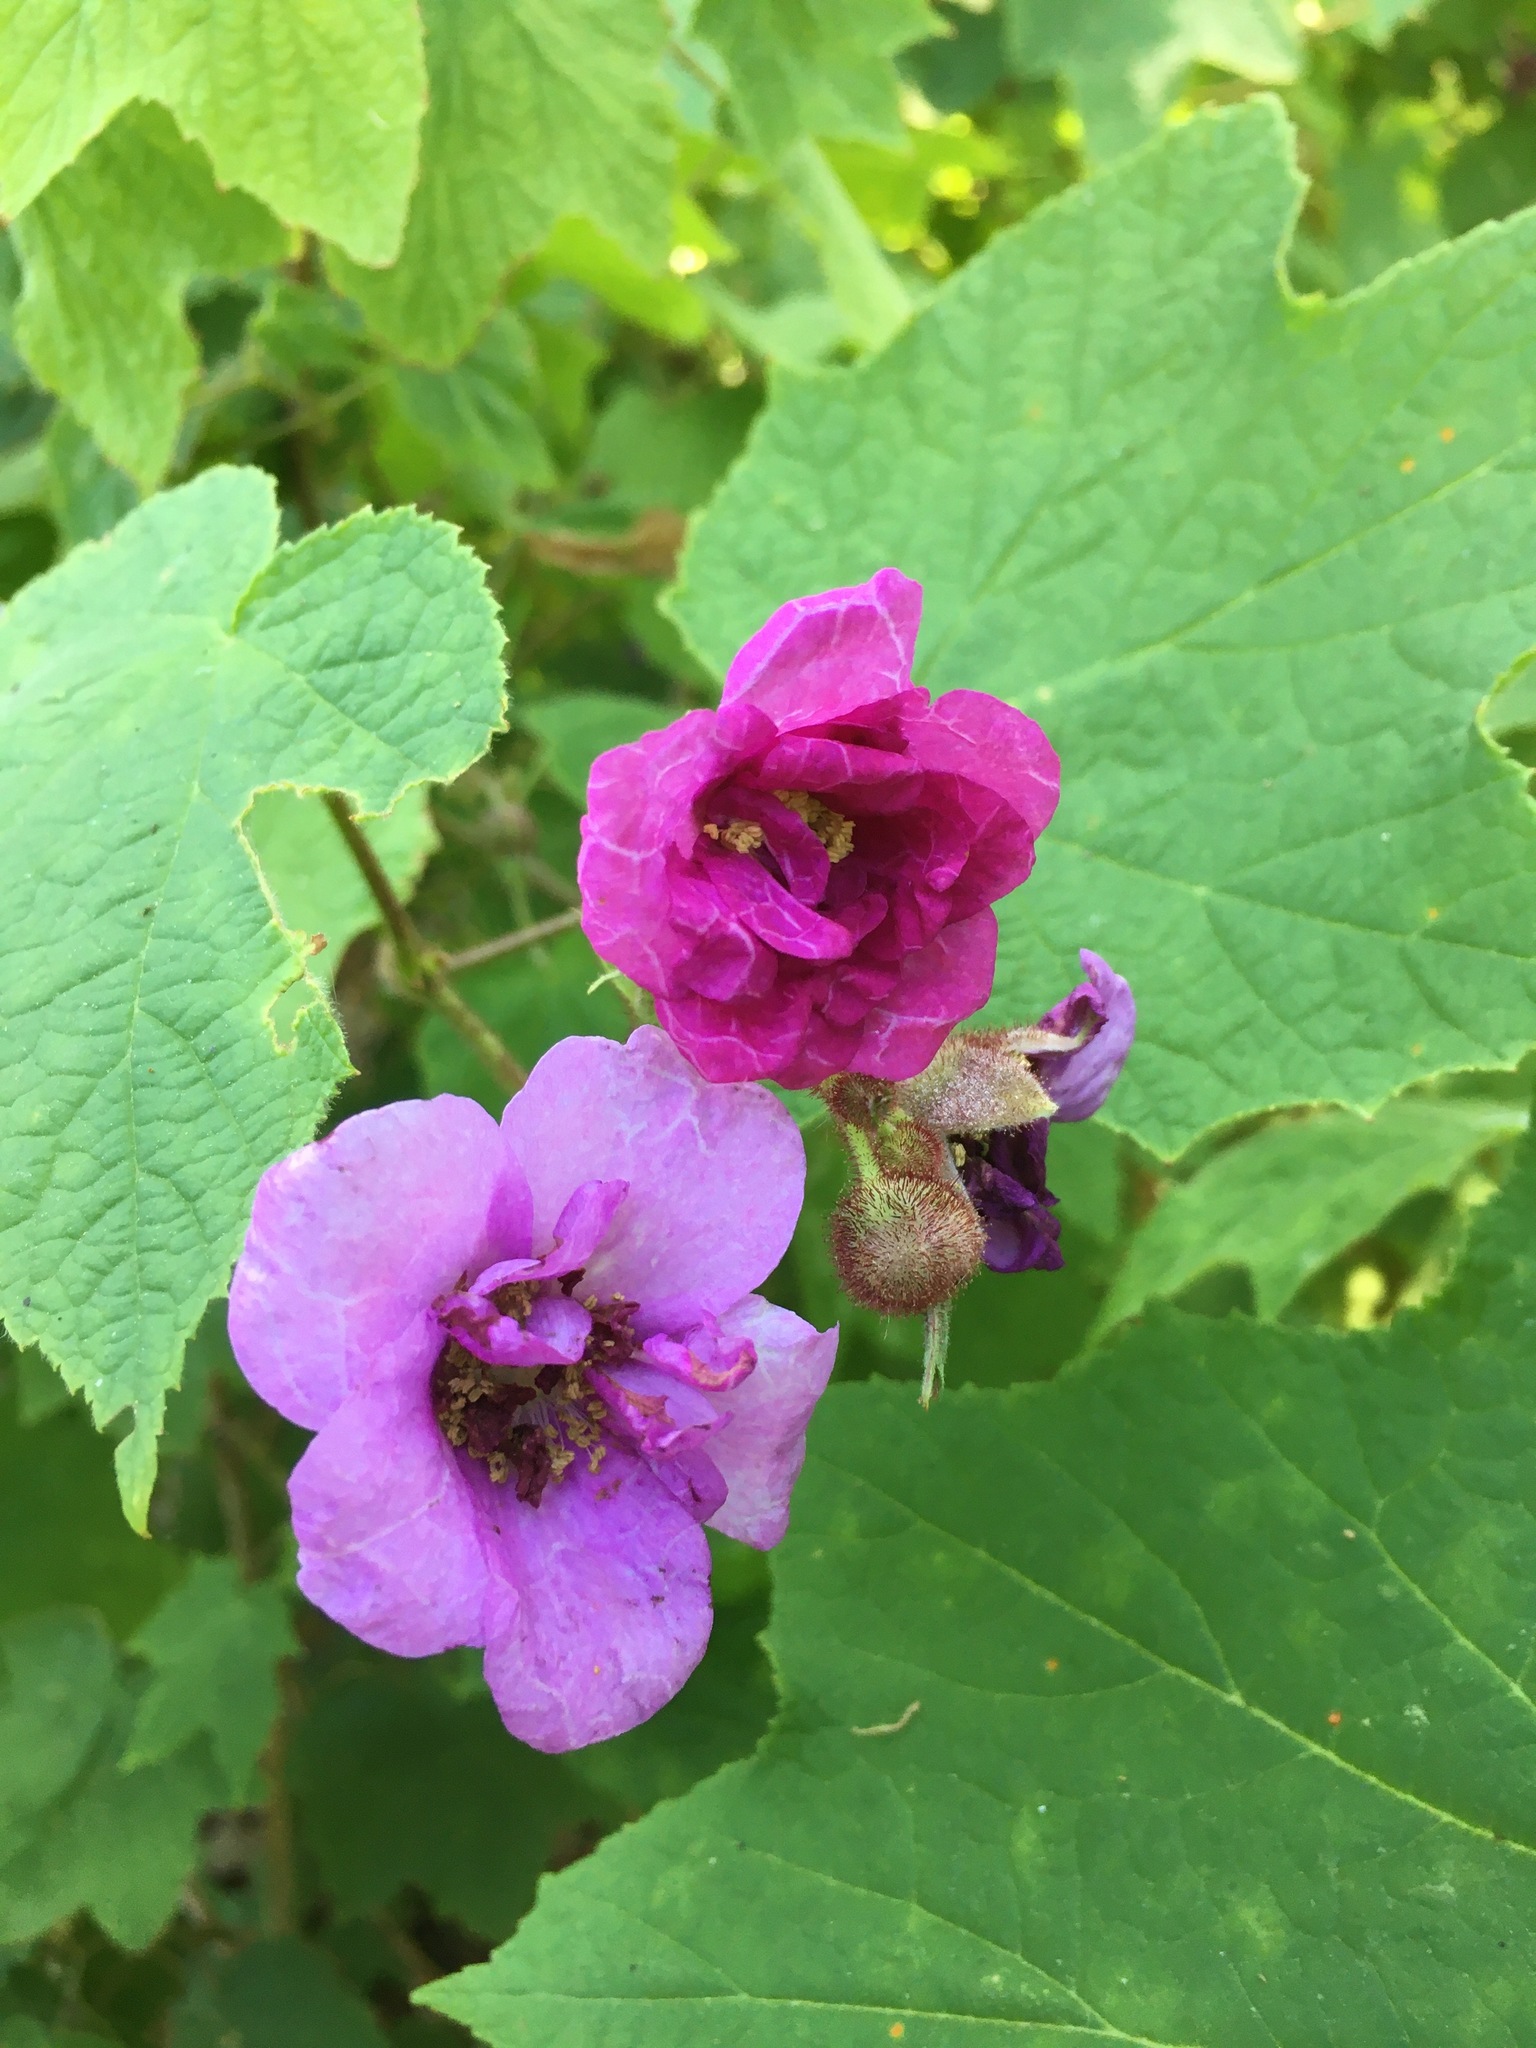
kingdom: Plantae
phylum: Tracheophyta
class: Magnoliopsida
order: Rosales
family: Rosaceae
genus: Rubus
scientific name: Rubus odoratus
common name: Purple-flowered raspberry
